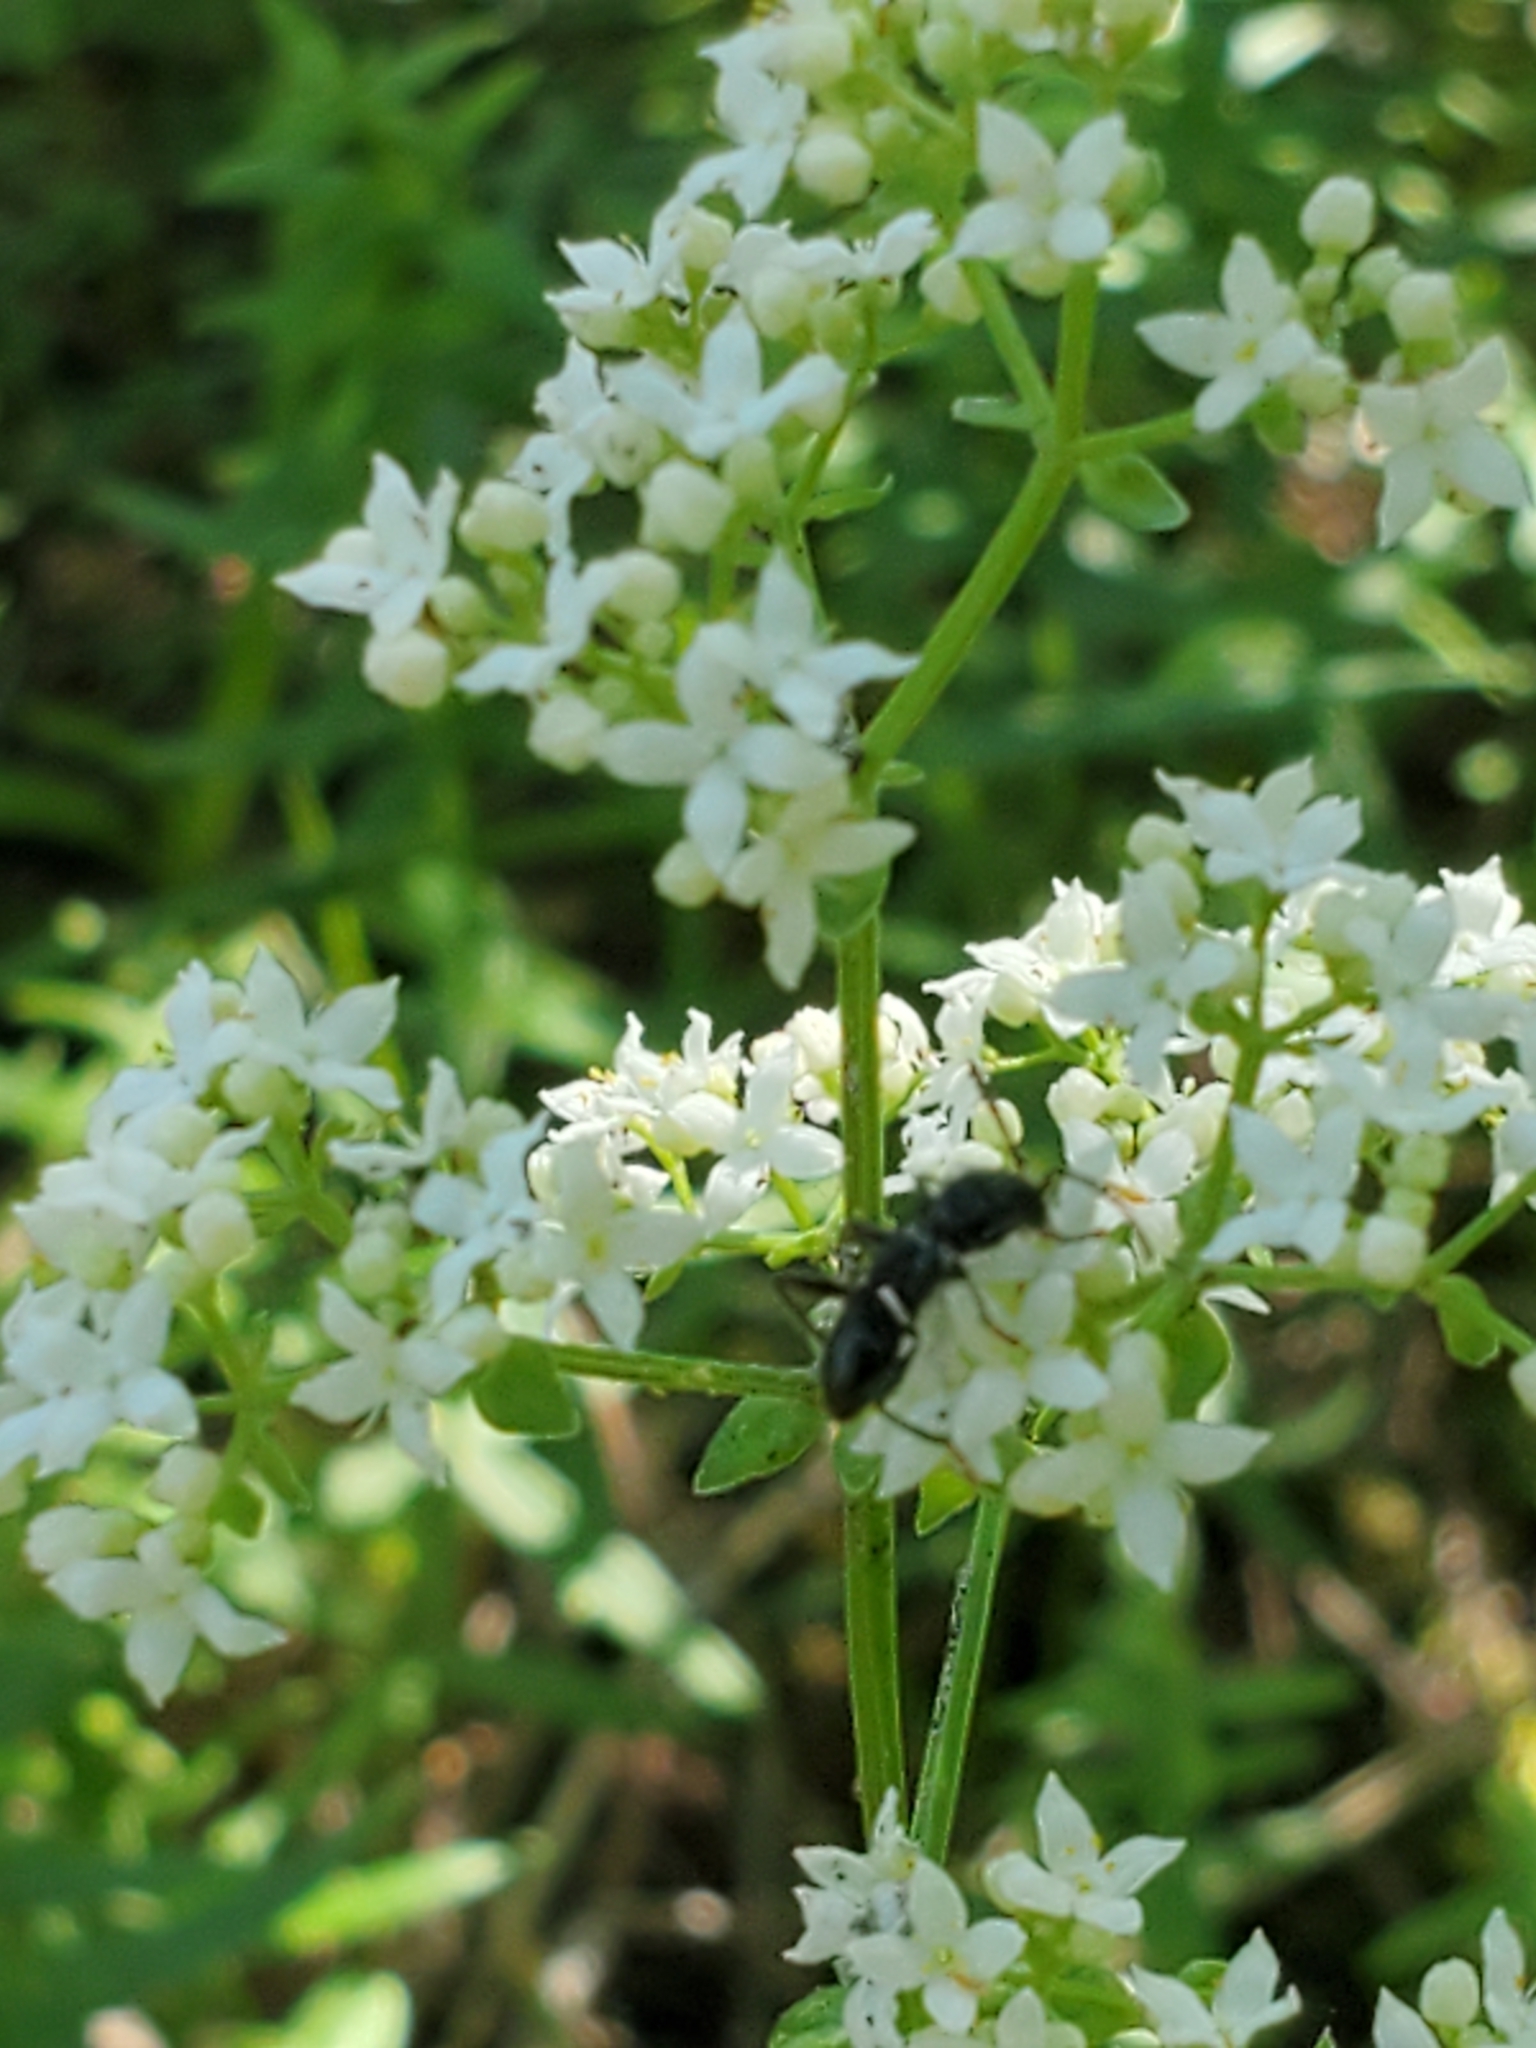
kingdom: Plantae
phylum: Tracheophyta
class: Magnoliopsida
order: Gentianales
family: Rubiaceae
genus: Galium
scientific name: Galium boreale
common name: Northern bedstraw
